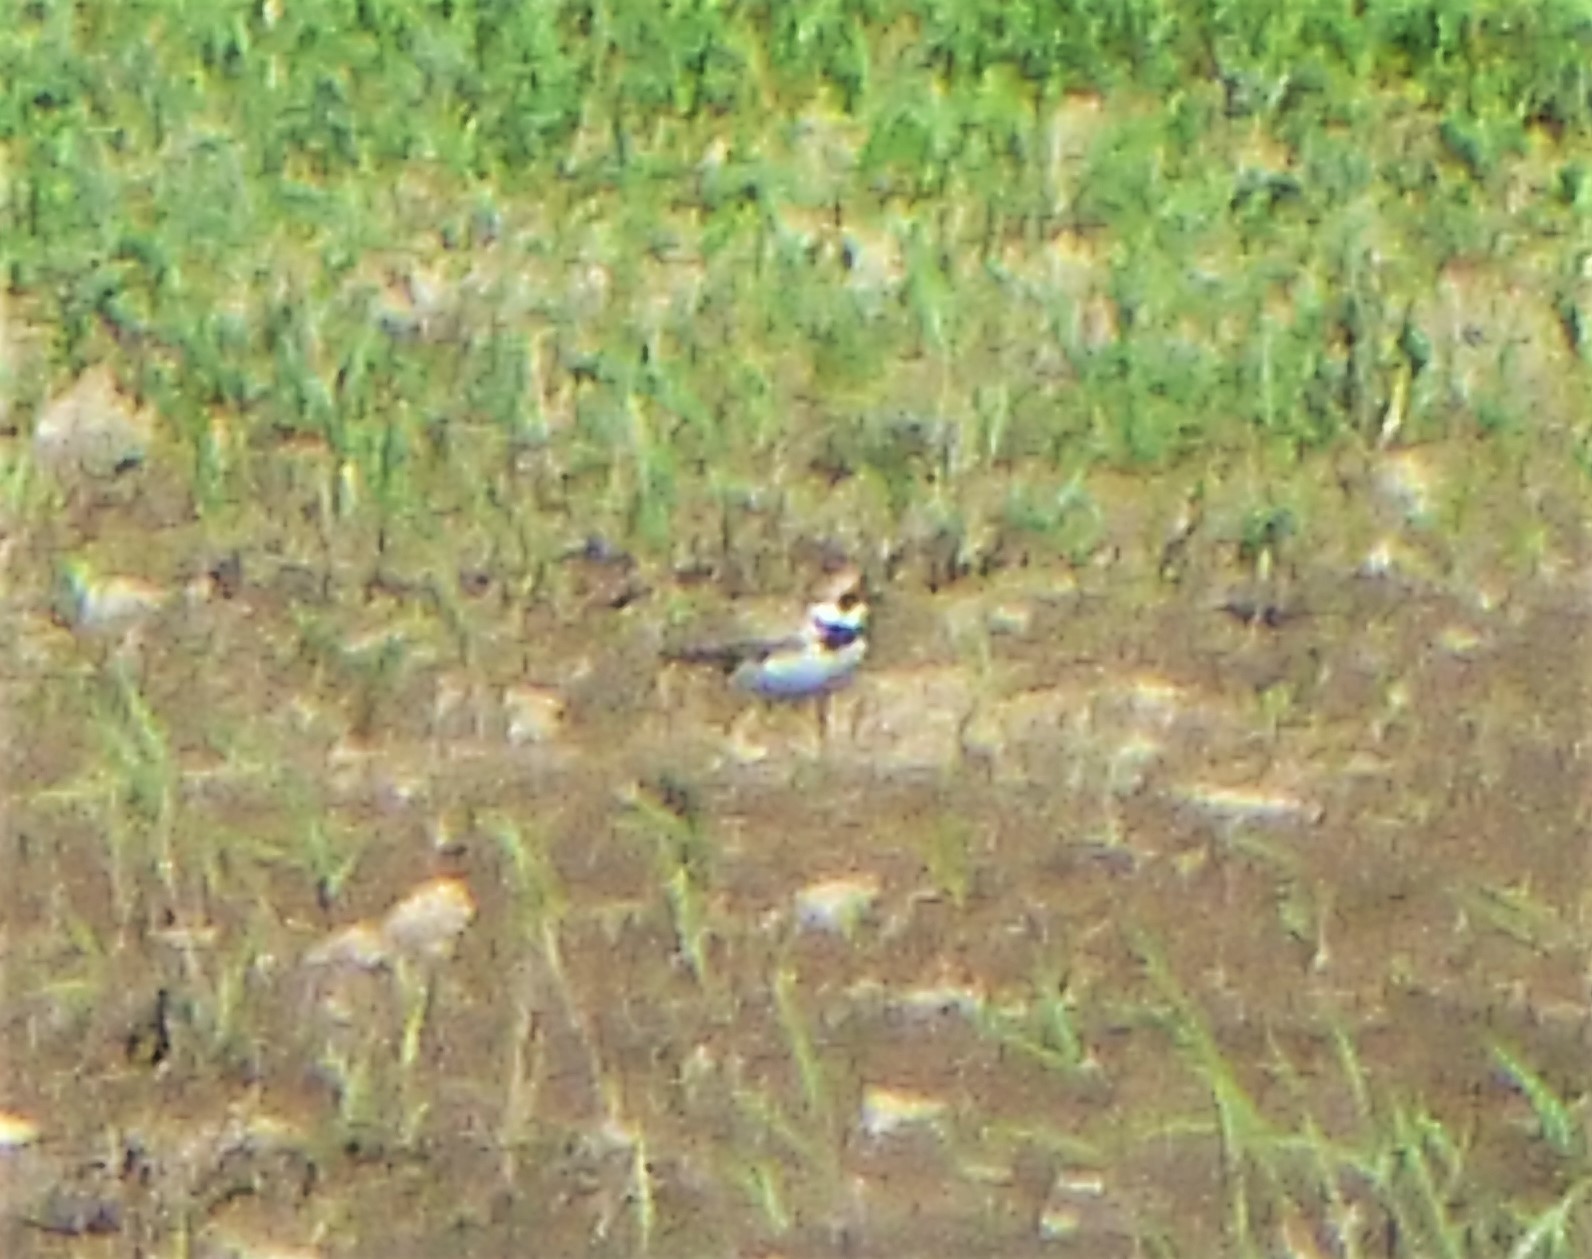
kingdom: Animalia
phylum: Chordata
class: Aves
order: Charadriiformes
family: Charadriidae
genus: Charadrius
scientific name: Charadrius dubius
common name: Little ringed plover
